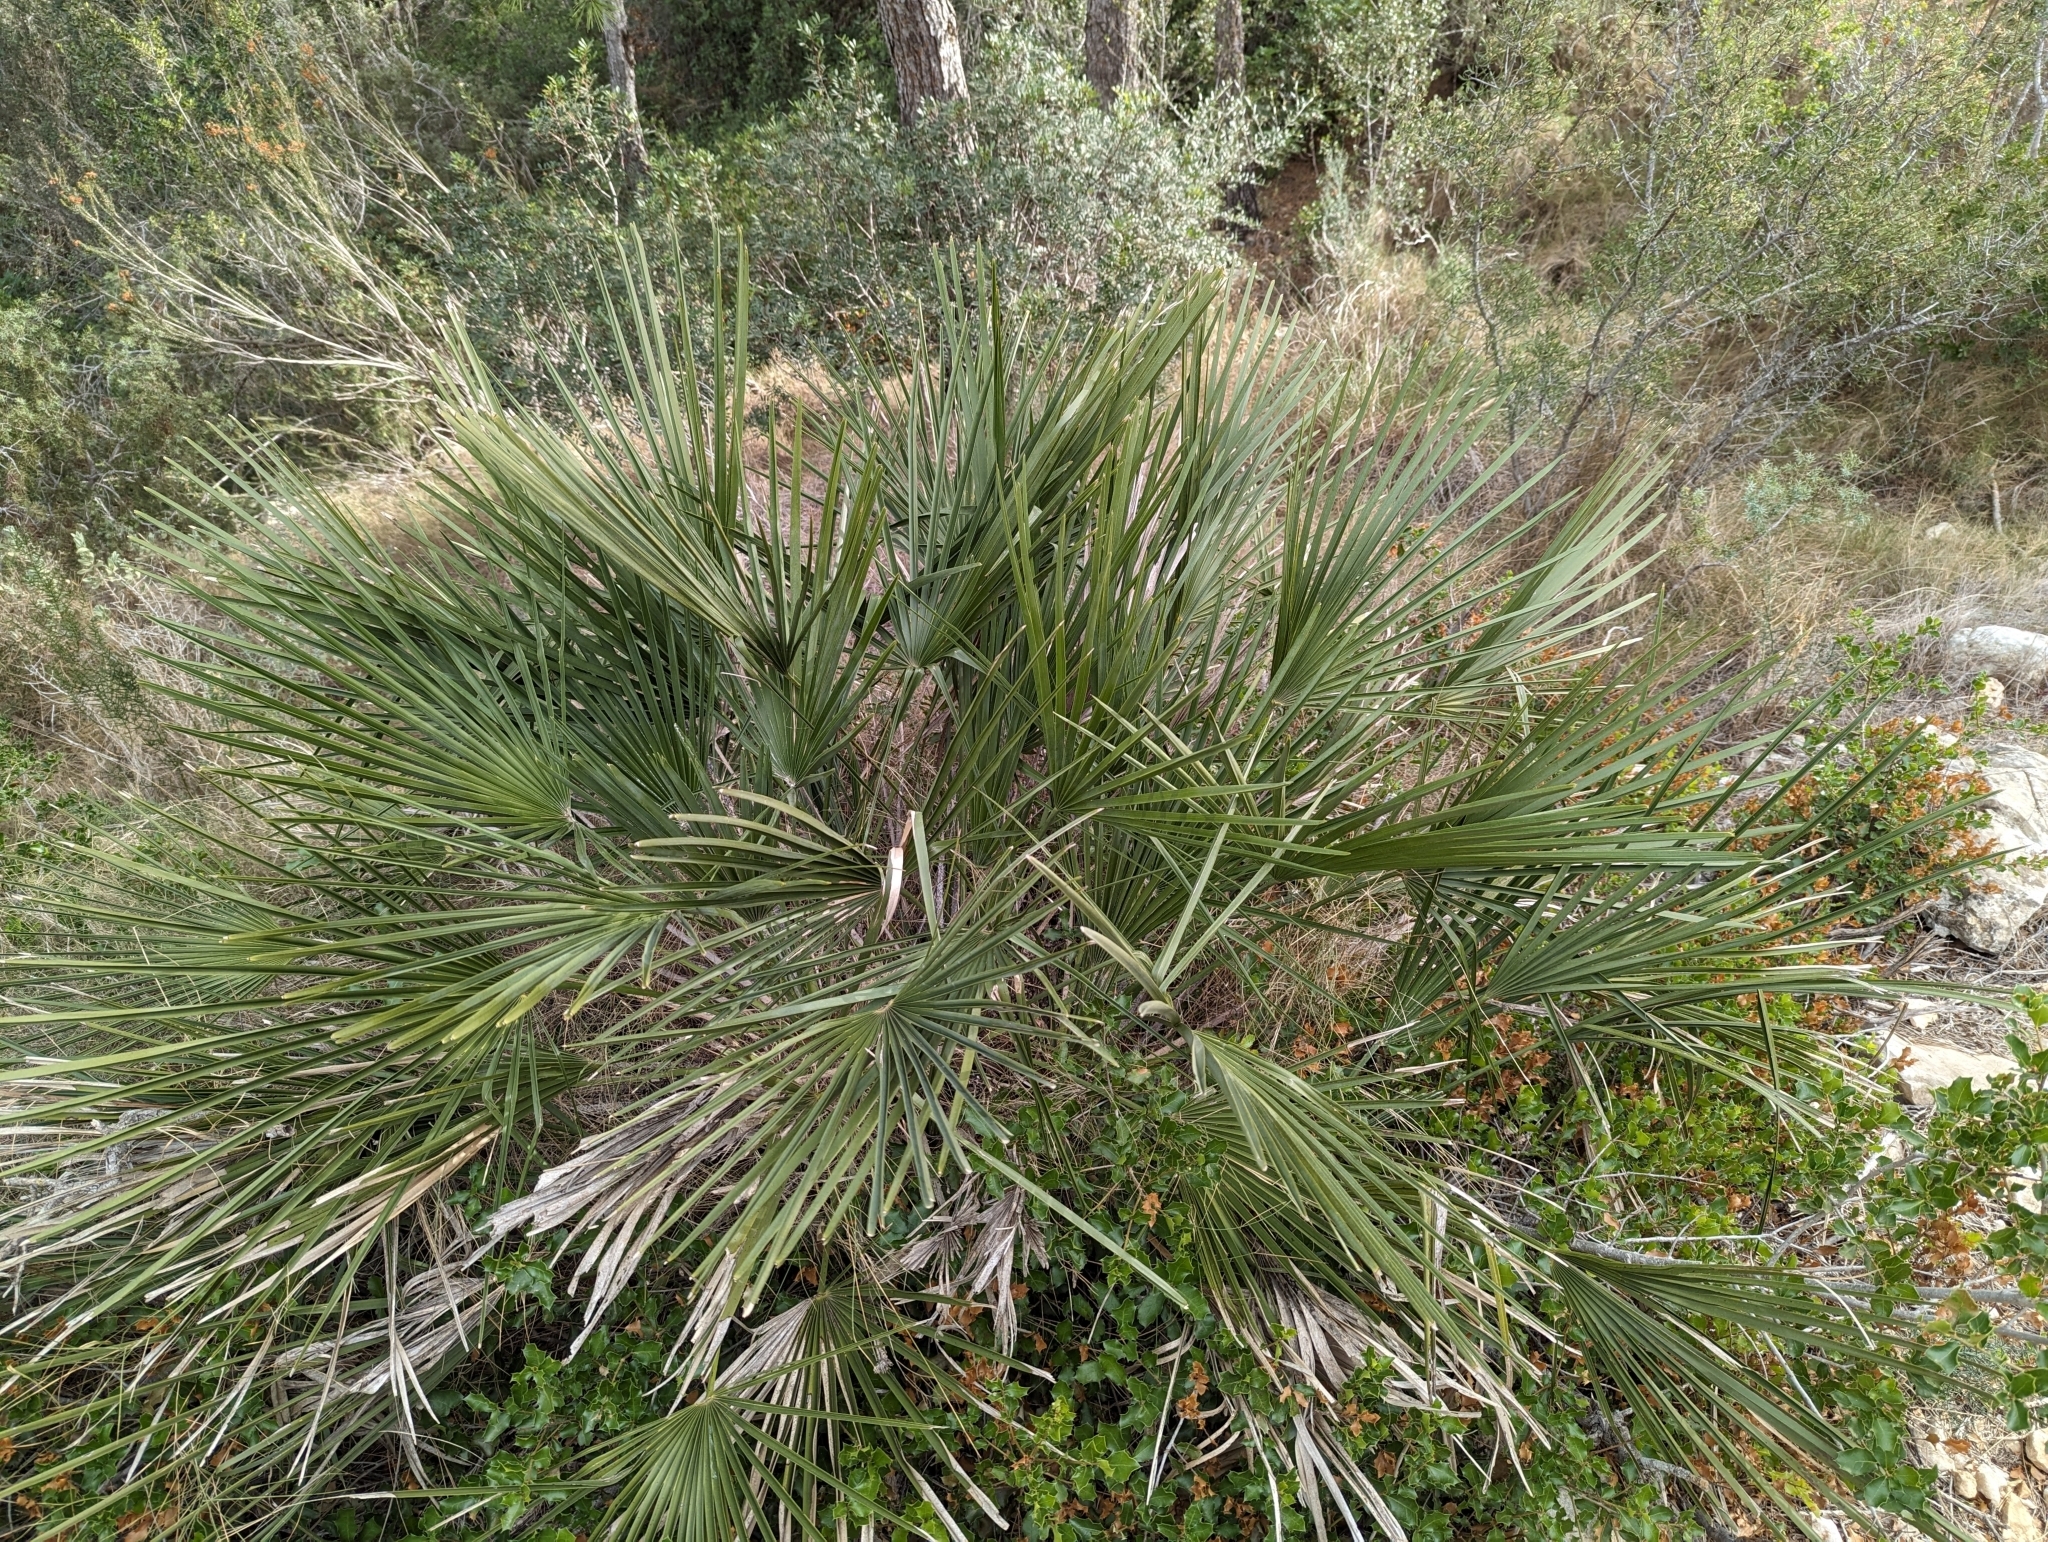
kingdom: Plantae
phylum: Tracheophyta
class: Liliopsida
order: Arecales
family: Arecaceae
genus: Chamaerops
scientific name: Chamaerops humilis
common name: Dwarf fan palm
